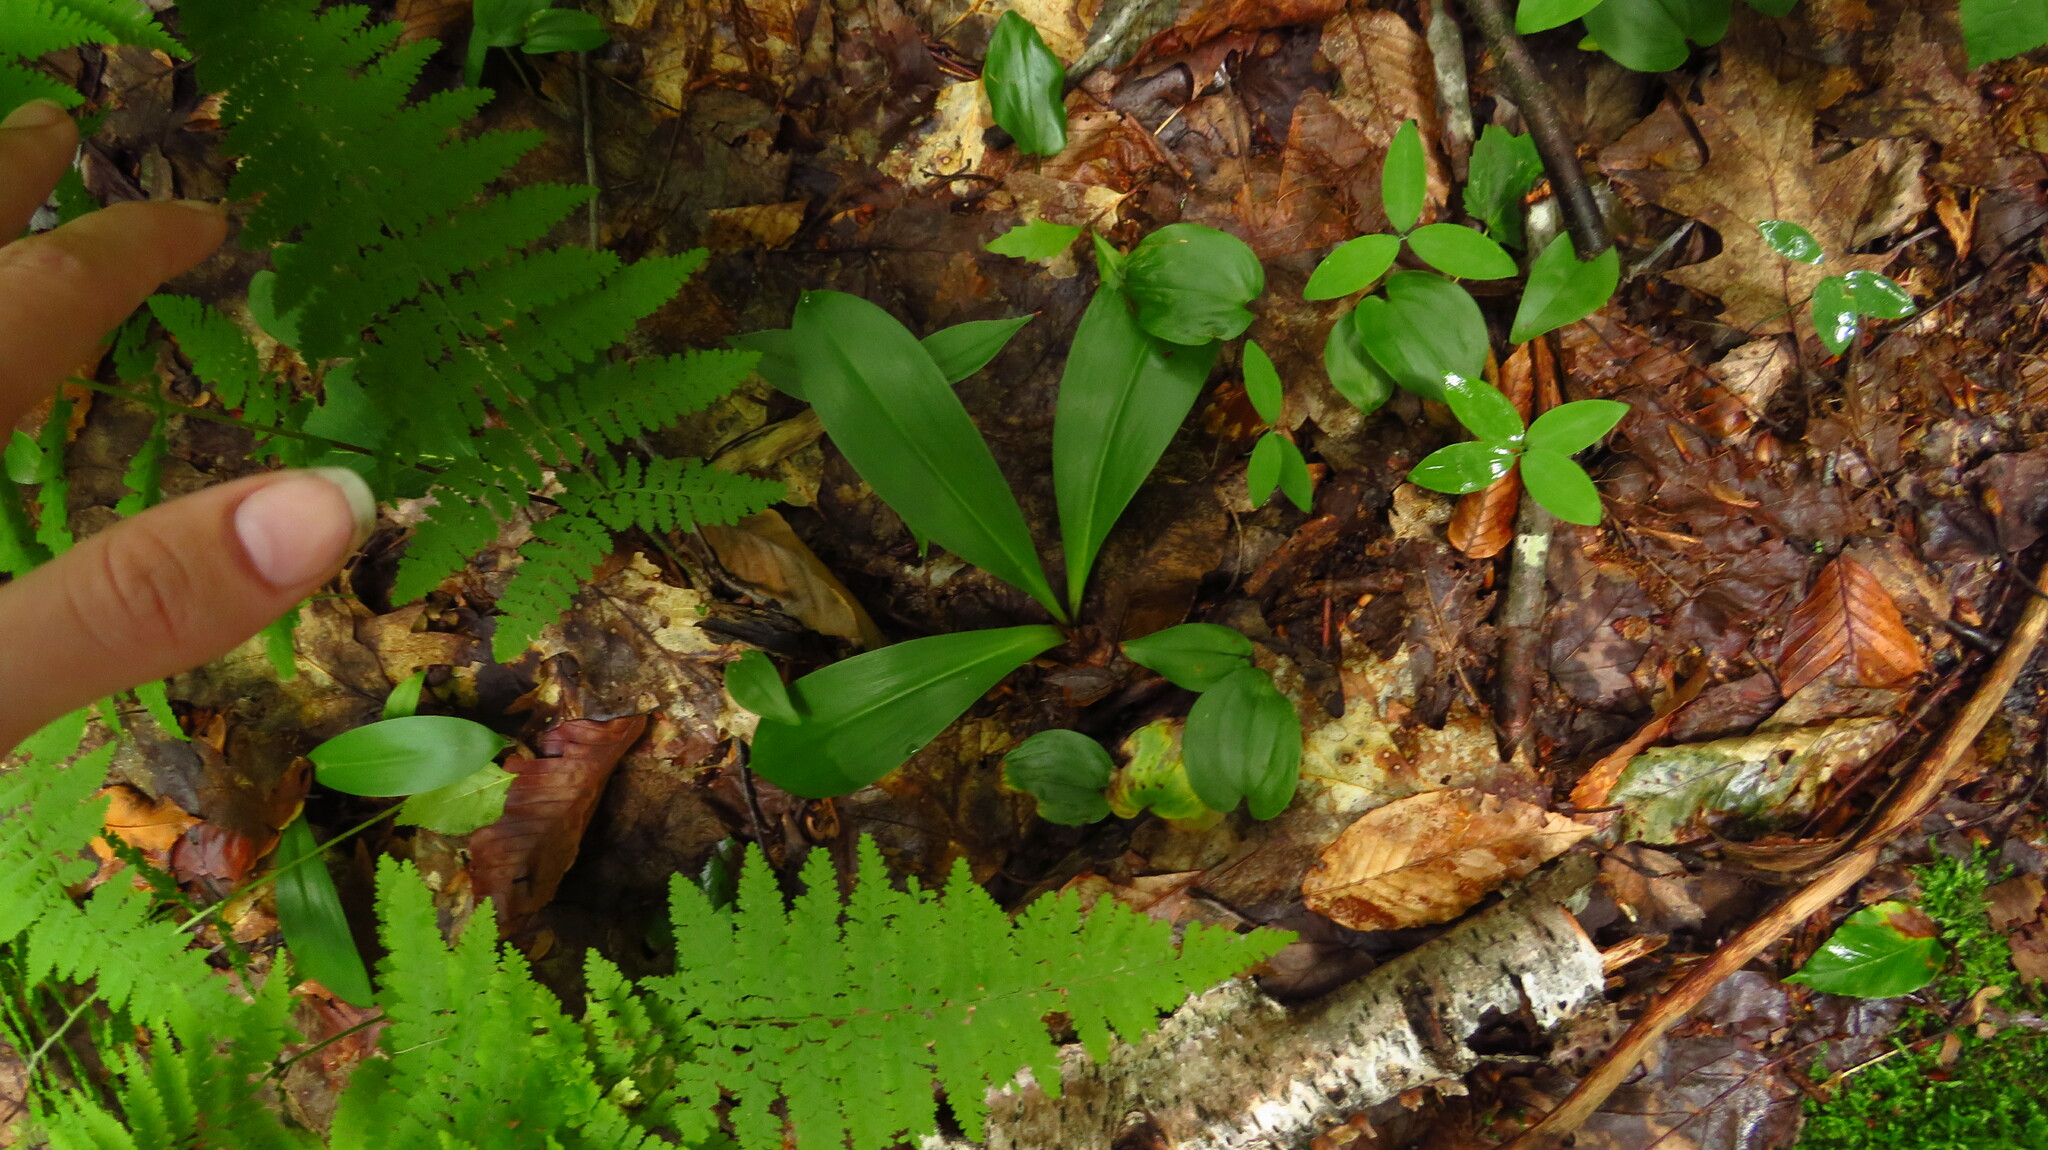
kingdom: Plantae
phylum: Tracheophyta
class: Liliopsida
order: Liliales
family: Liliaceae
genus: Clintonia
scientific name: Clintonia borealis
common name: Yellow clintonia
